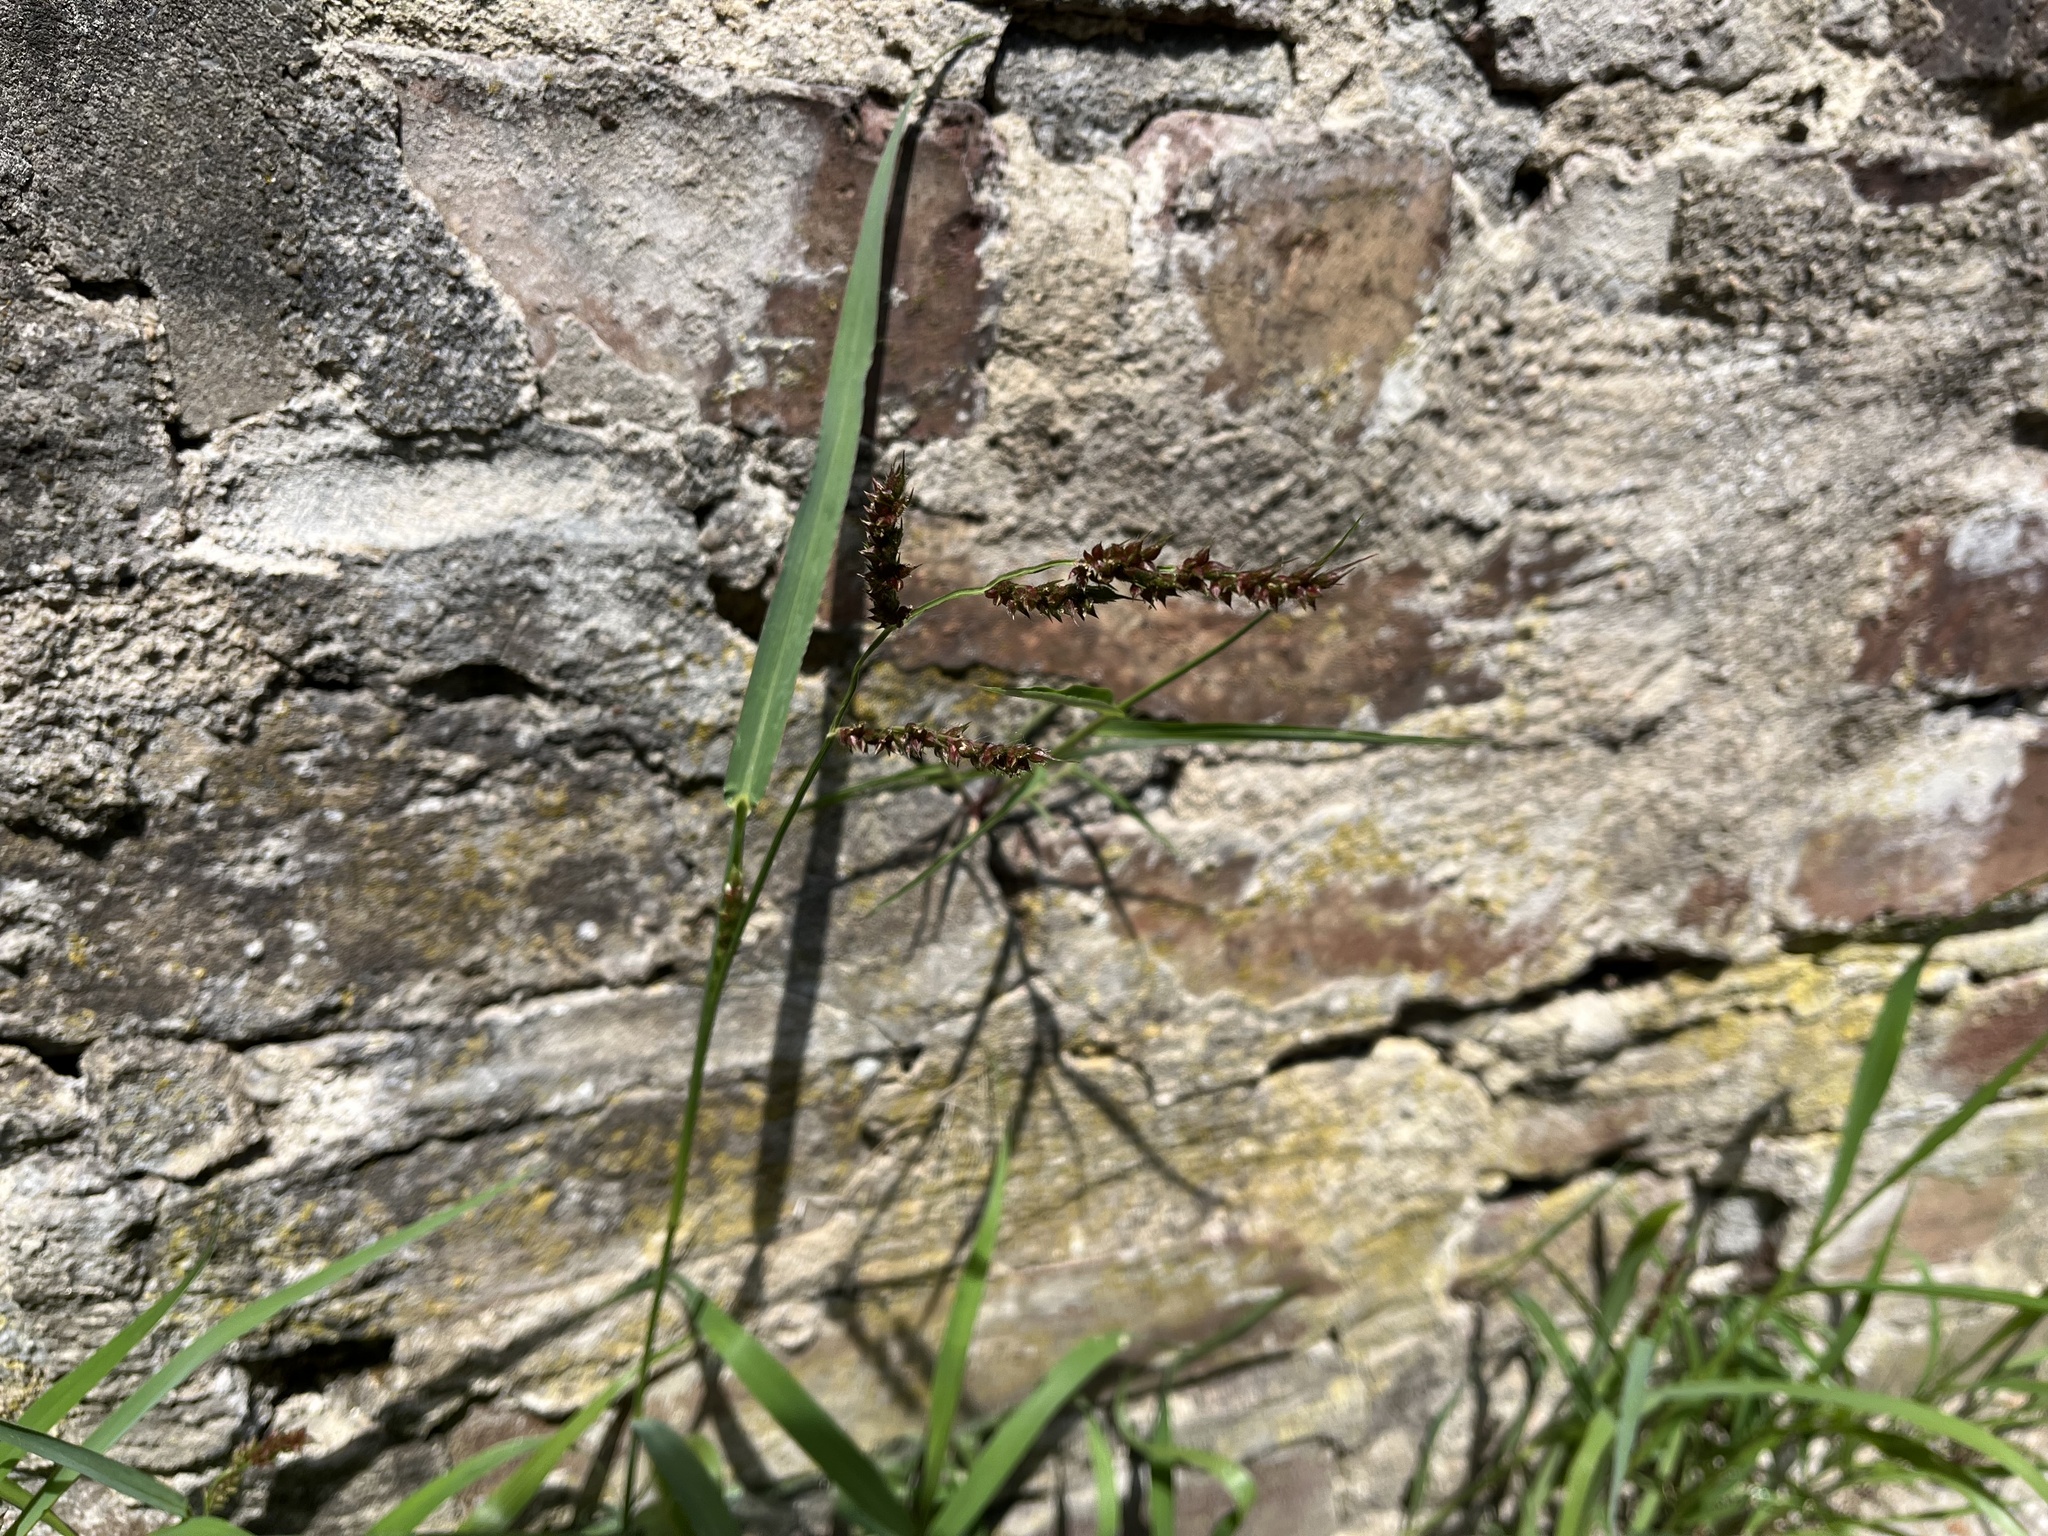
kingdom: Plantae
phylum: Tracheophyta
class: Liliopsida
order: Poales
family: Poaceae
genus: Echinochloa
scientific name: Echinochloa crus-galli
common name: Cockspur
